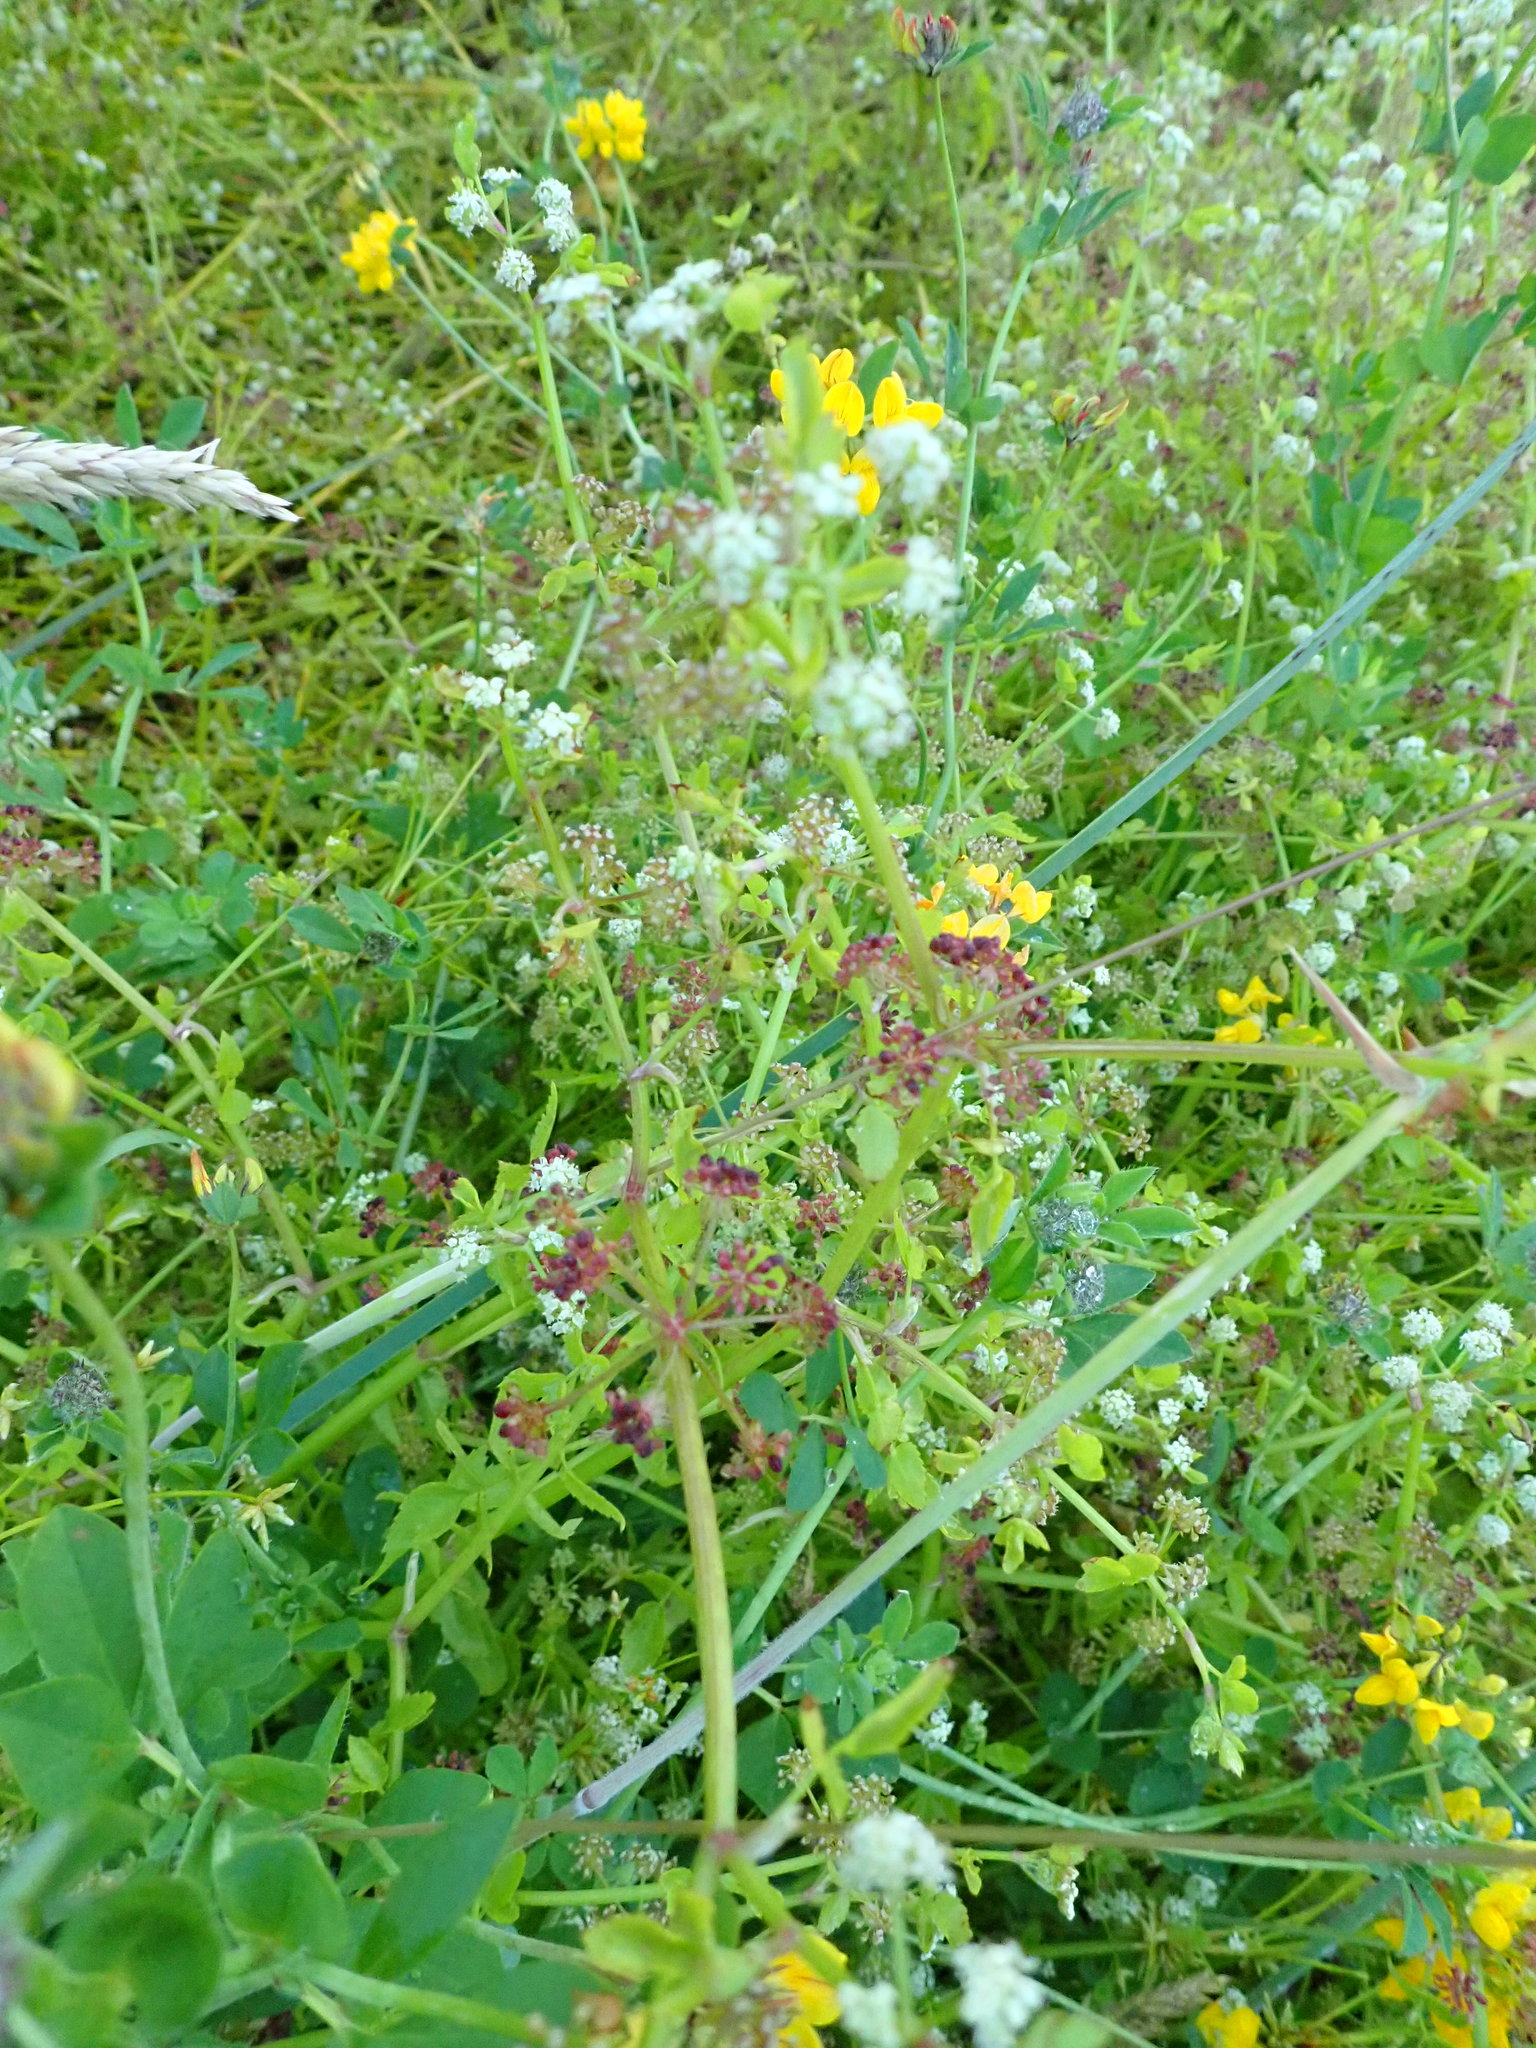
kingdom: Plantae
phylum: Tracheophyta
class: Magnoliopsida
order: Apiales
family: Apiaceae
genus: Apium
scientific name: Apium graveolens
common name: Wild celery
